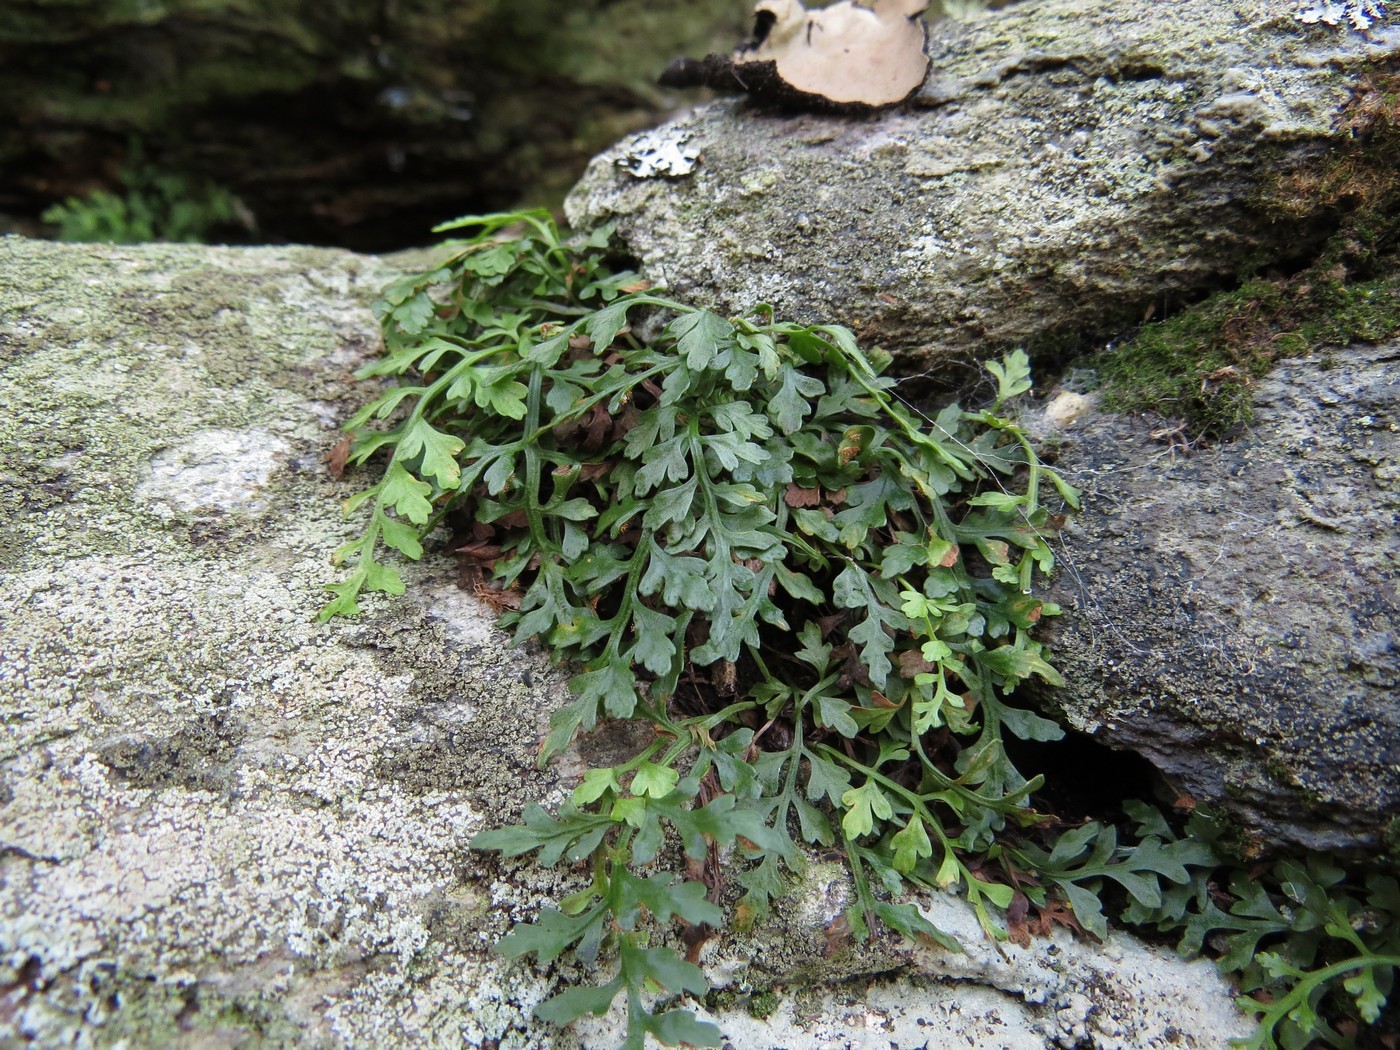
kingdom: Plantae
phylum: Tracheophyta
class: Polypodiopsida
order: Polypodiales
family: Aspleniaceae
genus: Asplenium
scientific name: Asplenium montanum
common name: Mountain spleenwort
